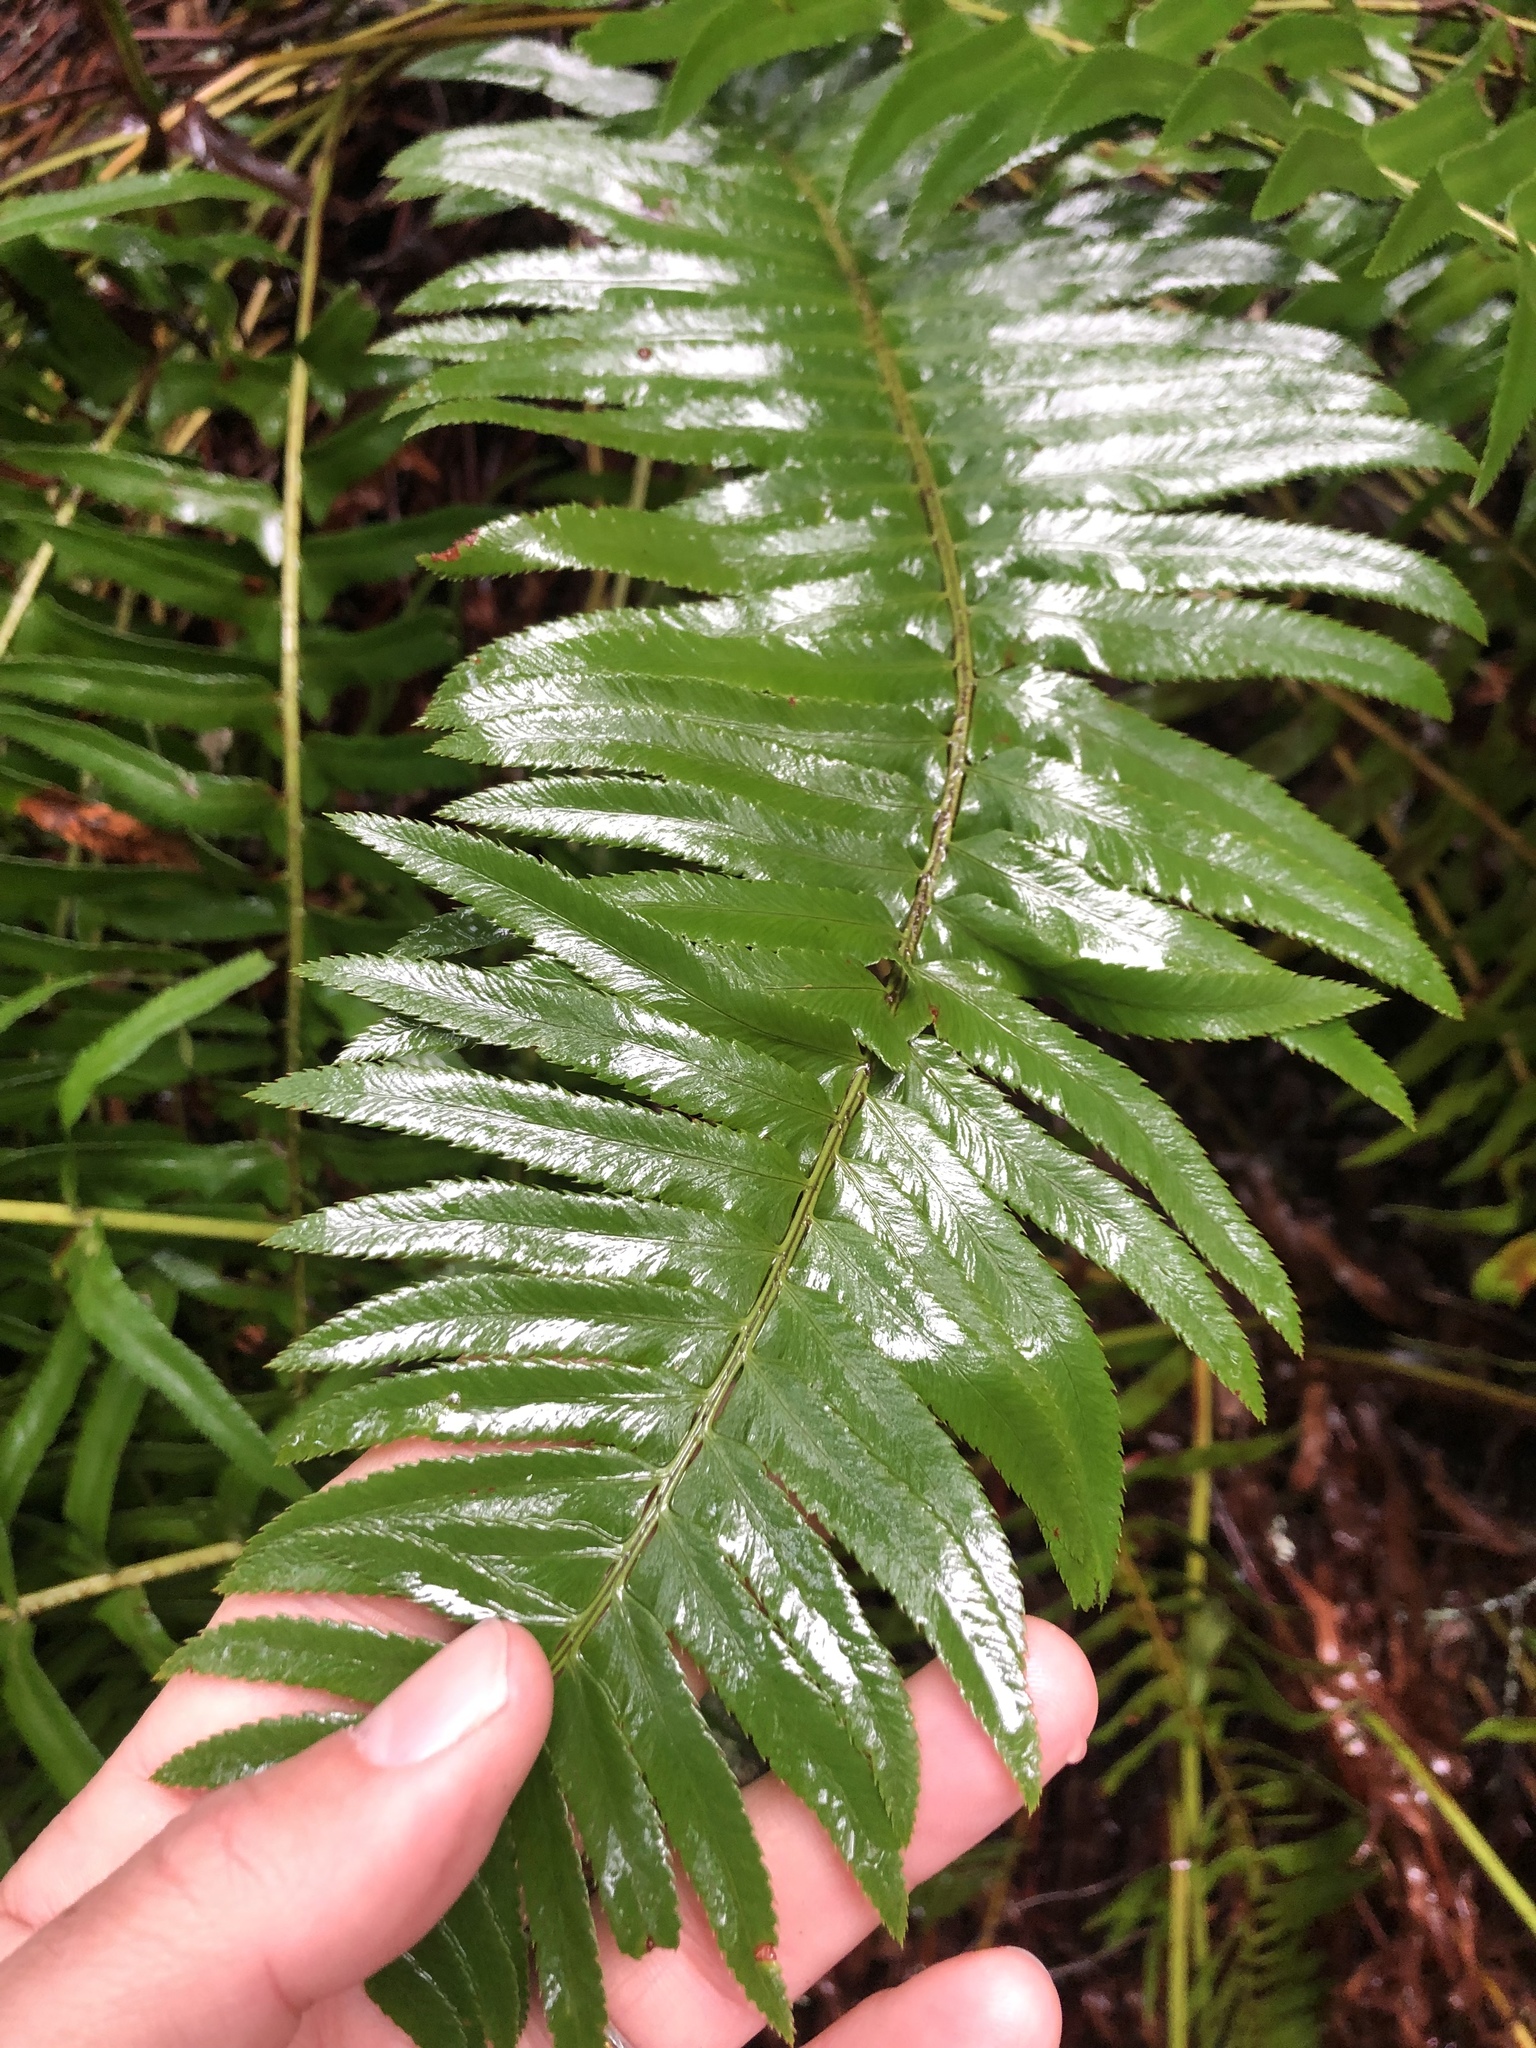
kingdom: Plantae
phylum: Tracheophyta
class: Polypodiopsida
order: Polypodiales
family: Dryopteridaceae
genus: Polystichum
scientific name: Polystichum munitum
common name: Western sword-fern
